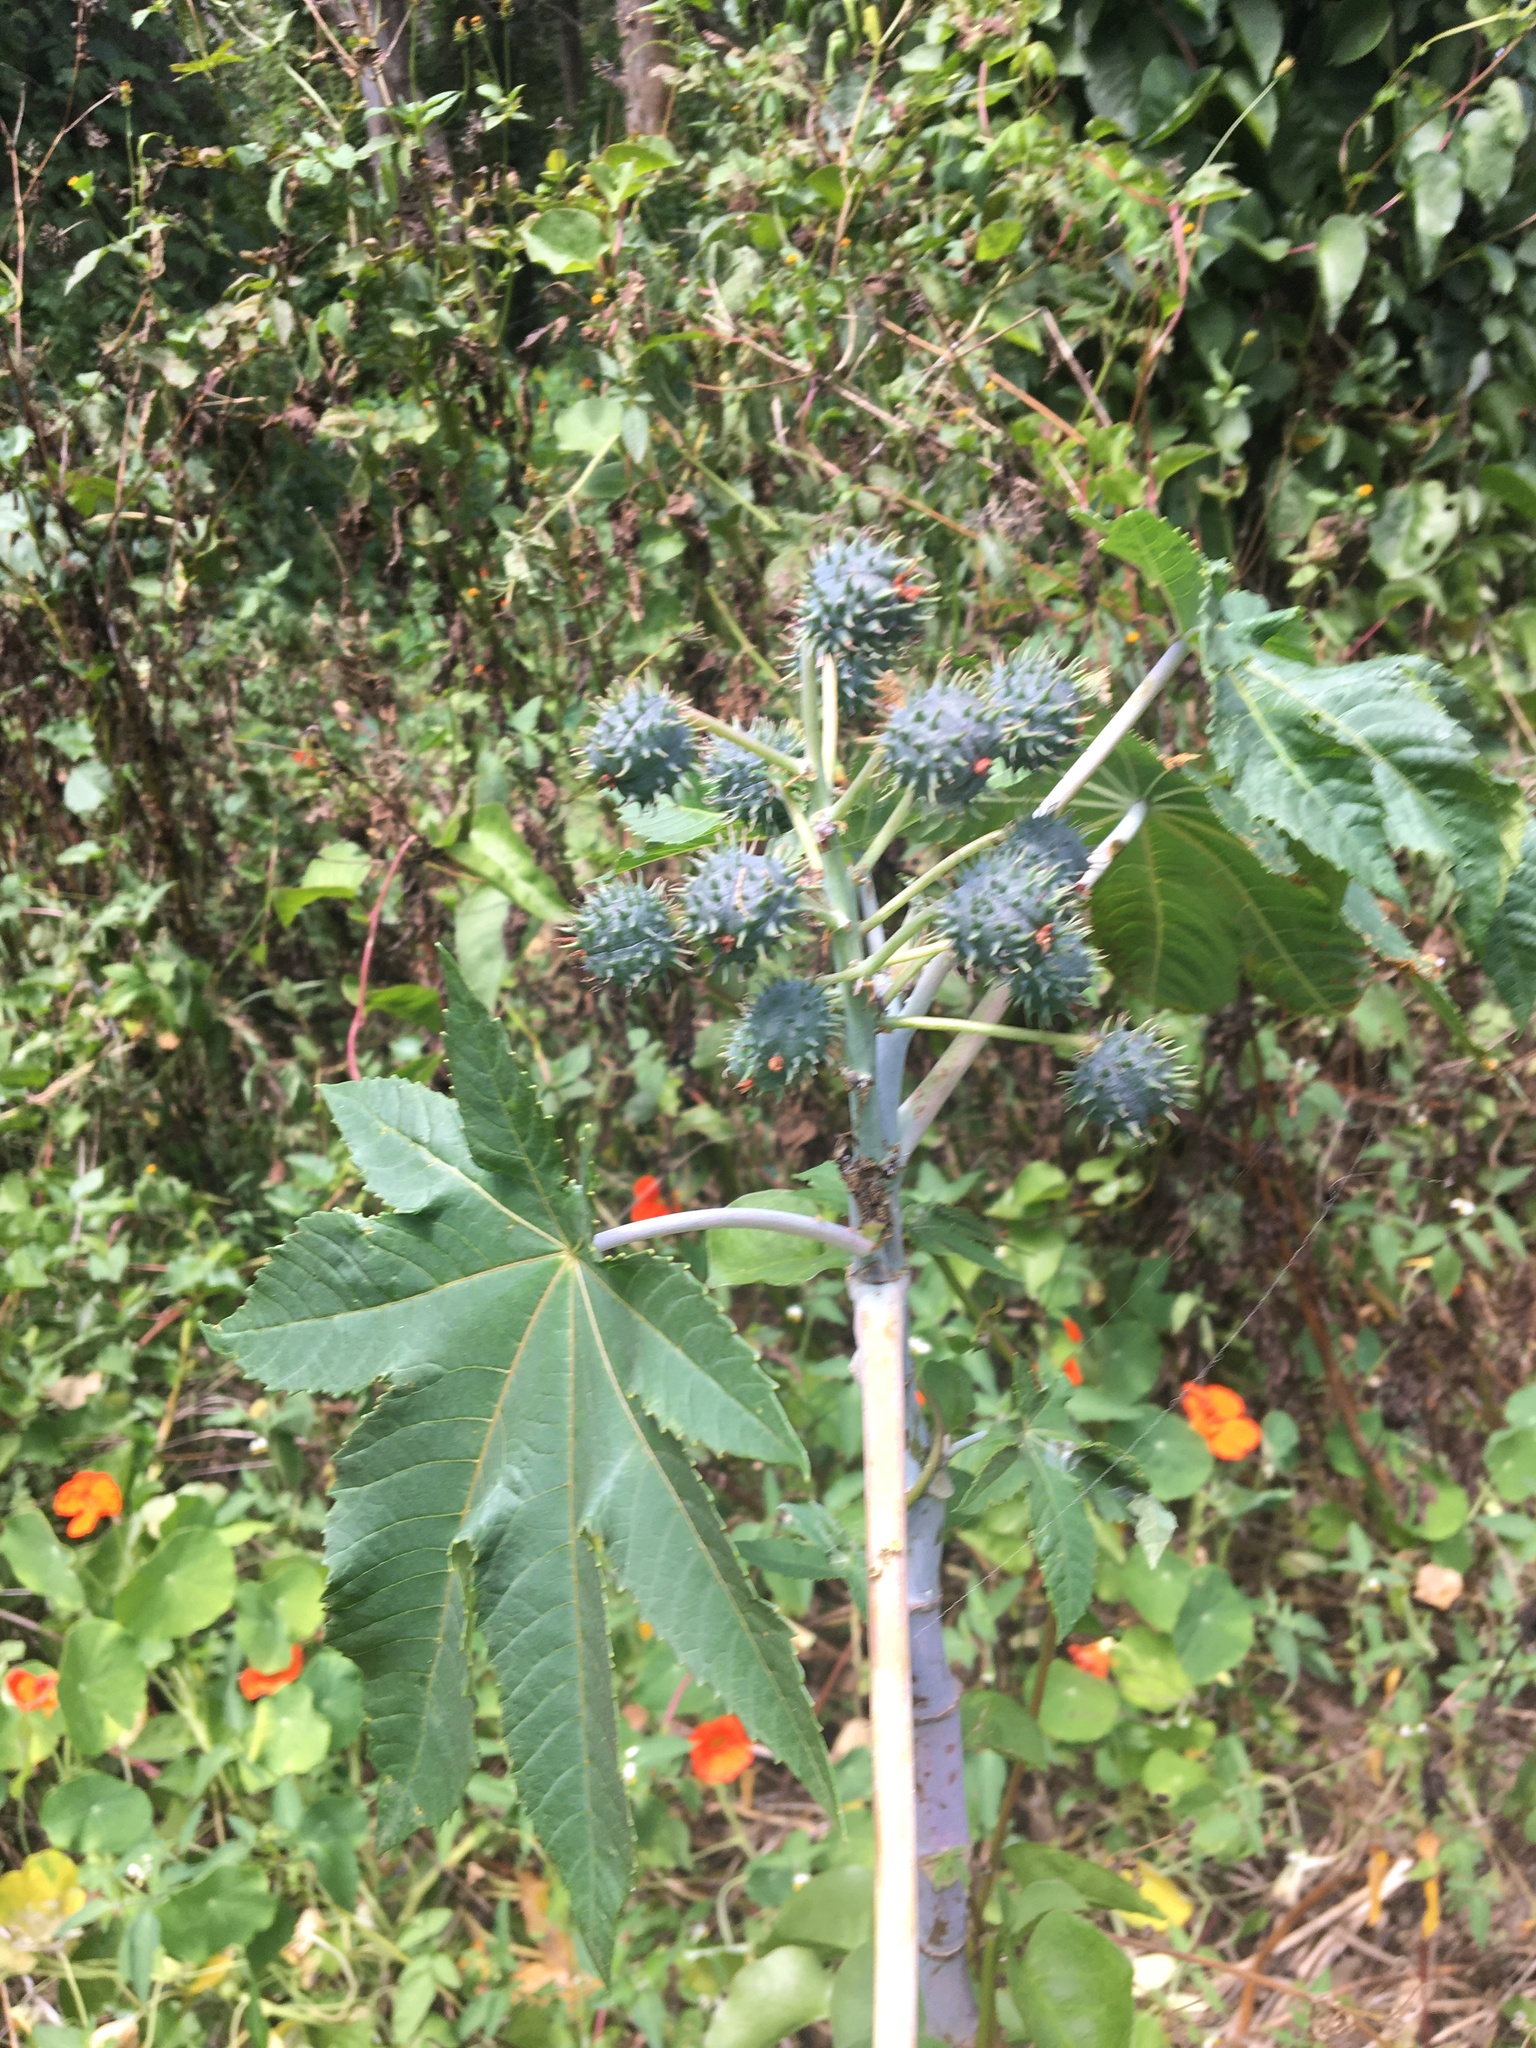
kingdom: Plantae
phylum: Tracheophyta
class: Magnoliopsida
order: Malpighiales
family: Euphorbiaceae
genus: Ricinus
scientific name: Ricinus communis
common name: Castor-oil-plant
